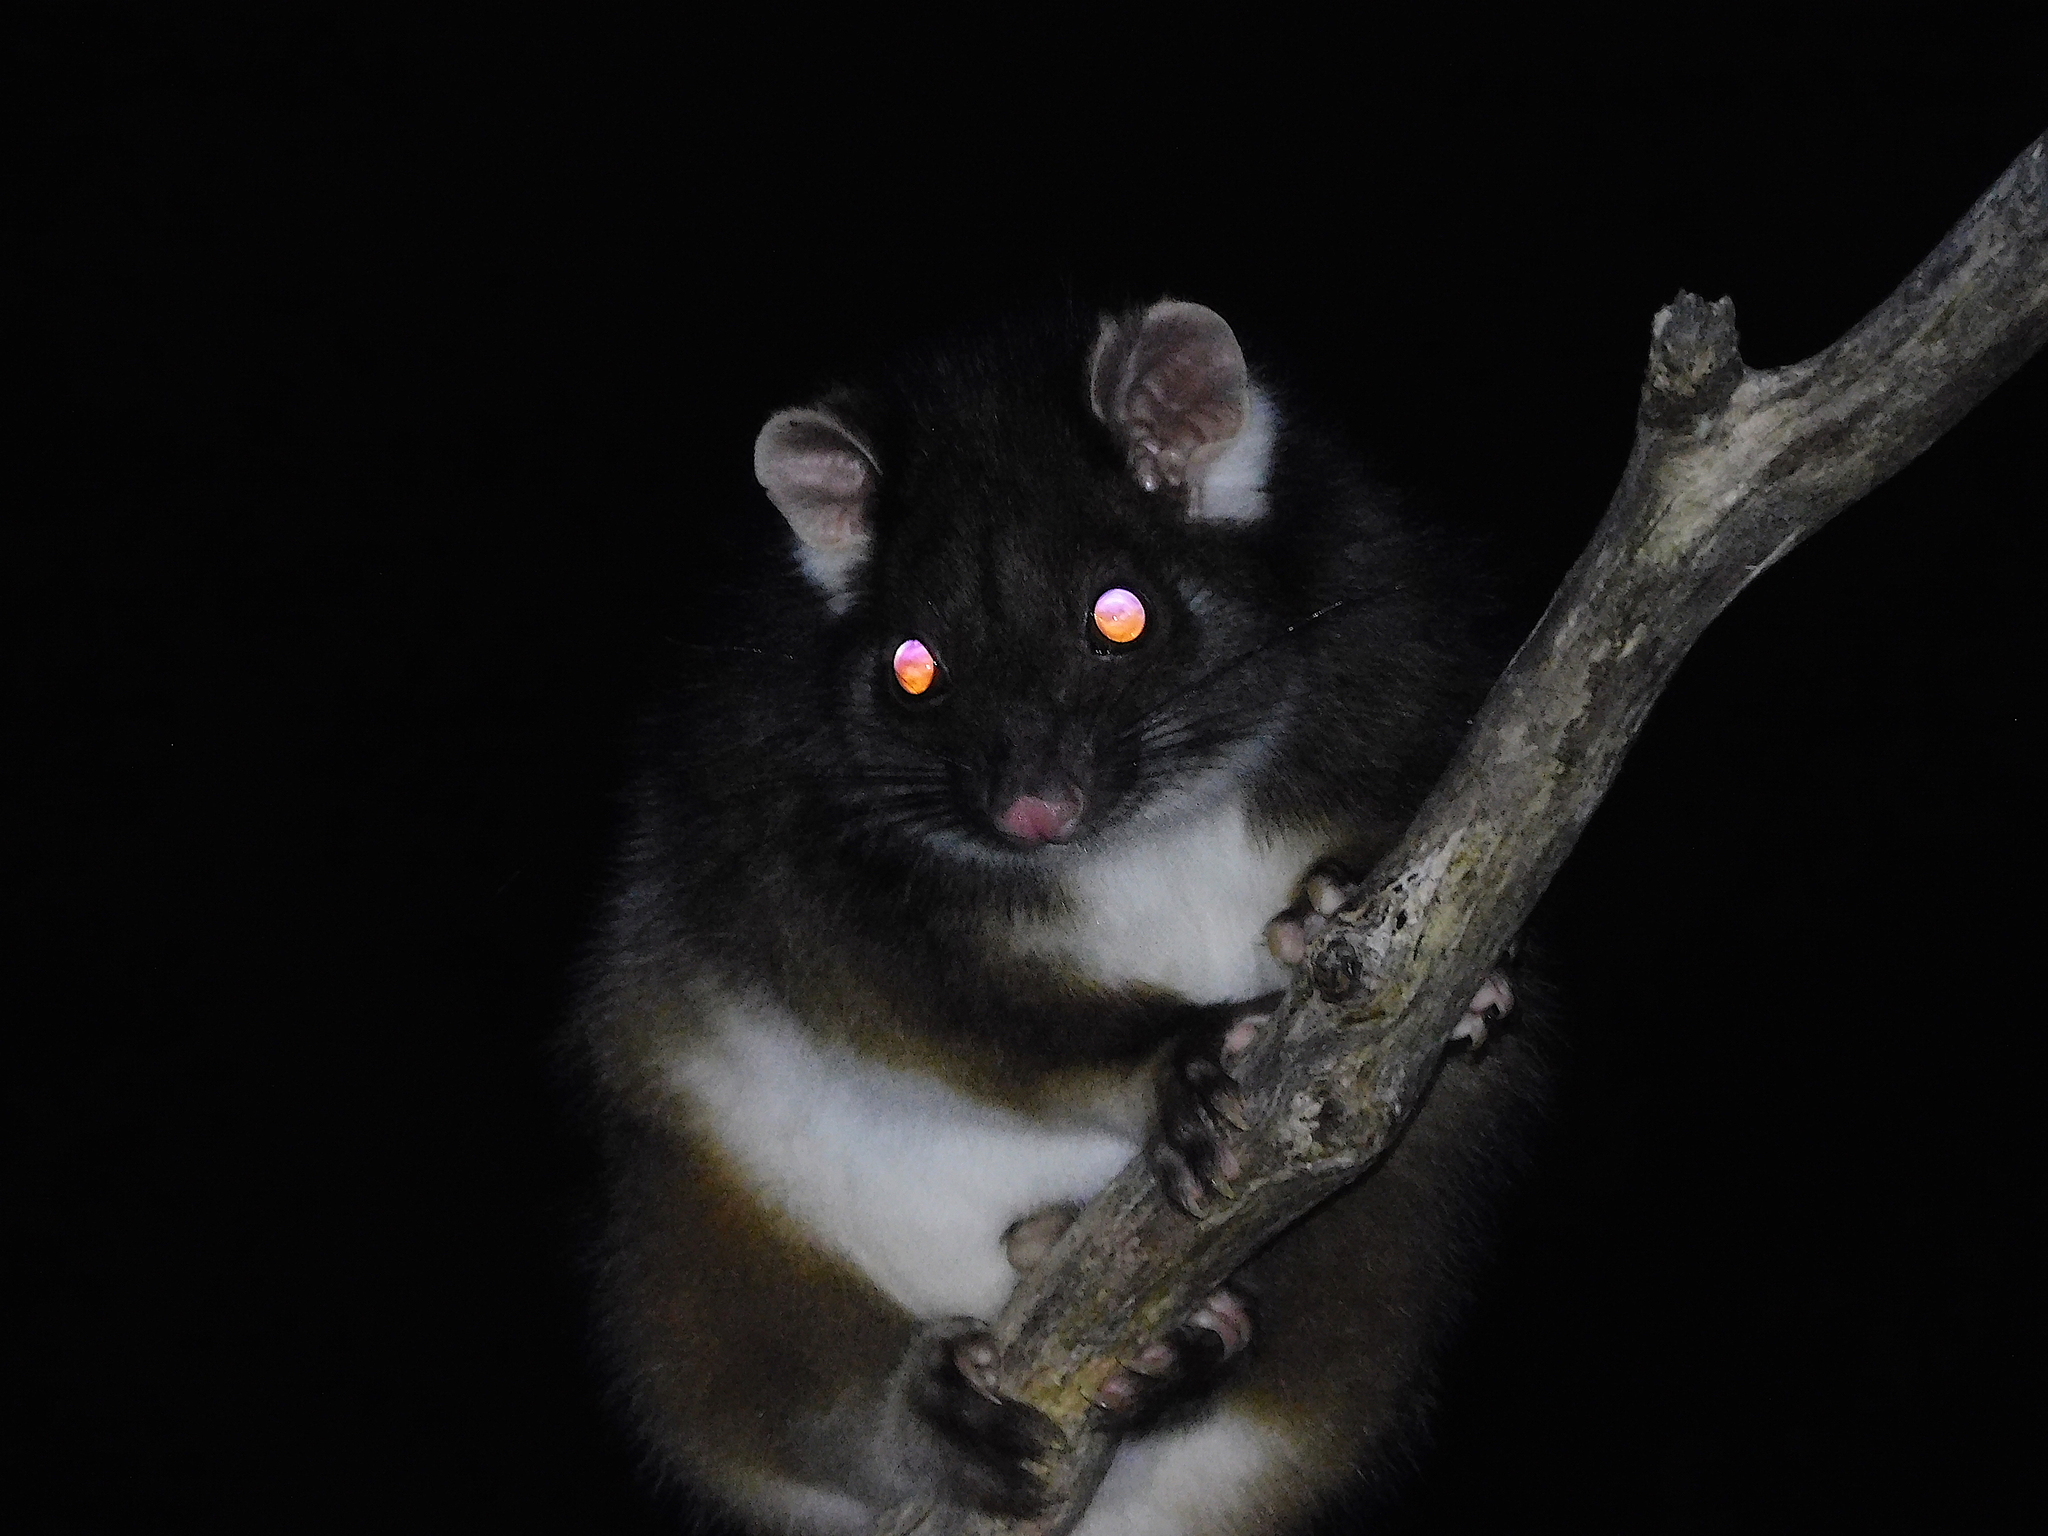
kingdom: Animalia
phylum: Chordata
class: Mammalia
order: Diprotodontia
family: Pseudocheiridae
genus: Pseudocheirus
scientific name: Pseudocheirus peregrinus
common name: Common ringtail possum
